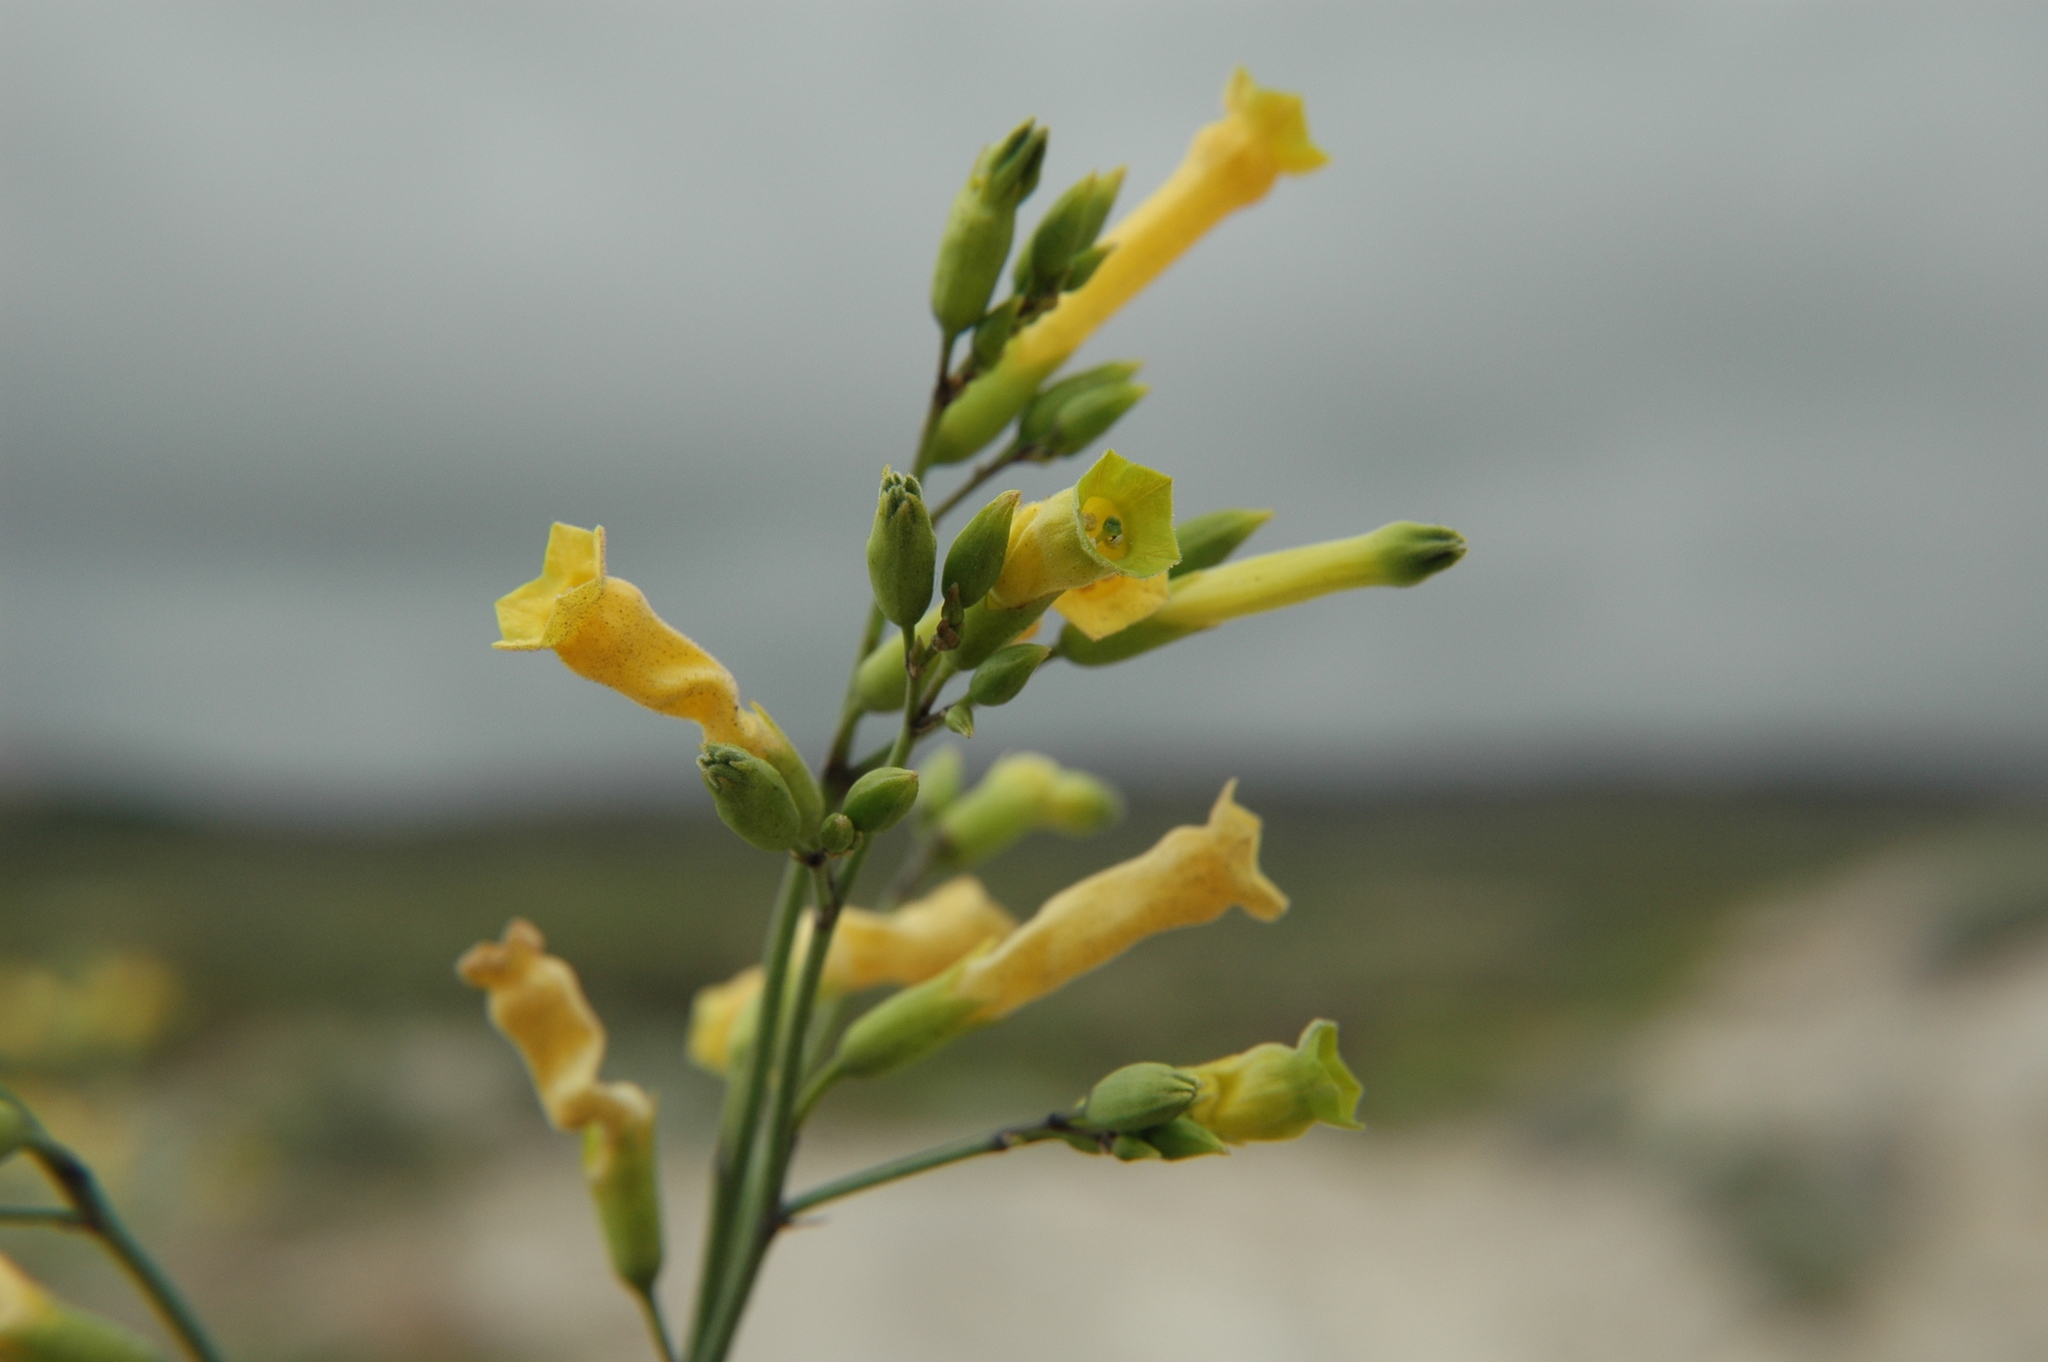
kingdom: Plantae
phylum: Tracheophyta
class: Magnoliopsida
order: Solanales
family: Solanaceae
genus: Nicotiana
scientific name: Nicotiana glauca
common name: Tree tobacco
